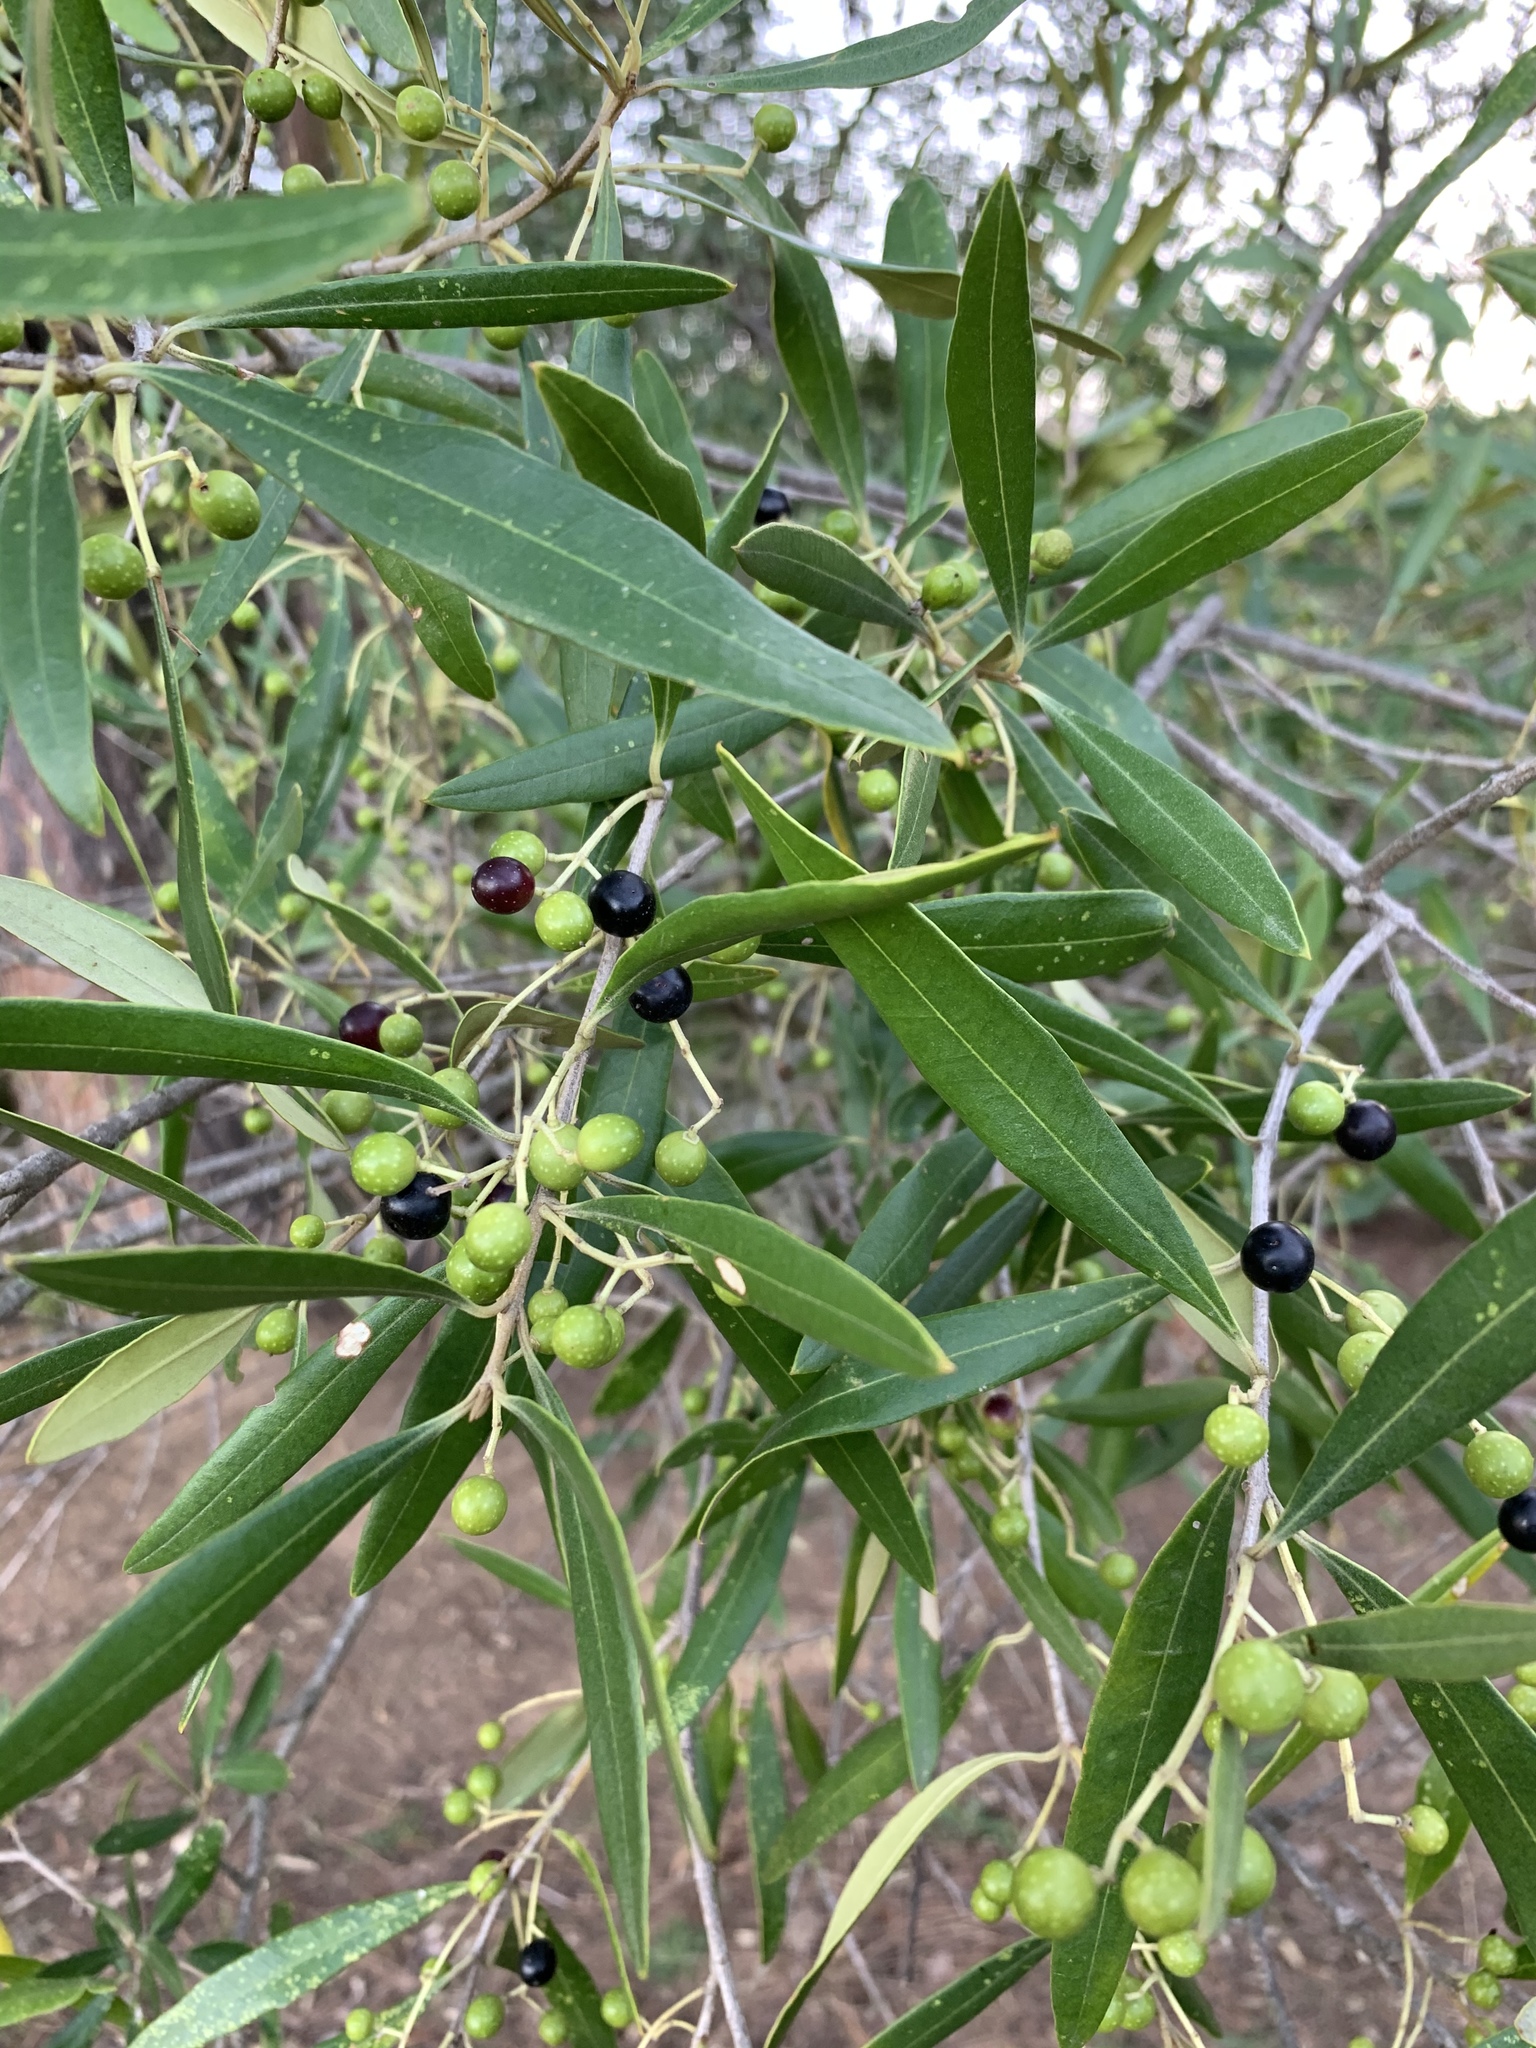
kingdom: Plantae
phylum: Tracheophyta
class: Magnoliopsida
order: Lamiales
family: Oleaceae
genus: Olea
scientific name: Olea europaea
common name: Olive
